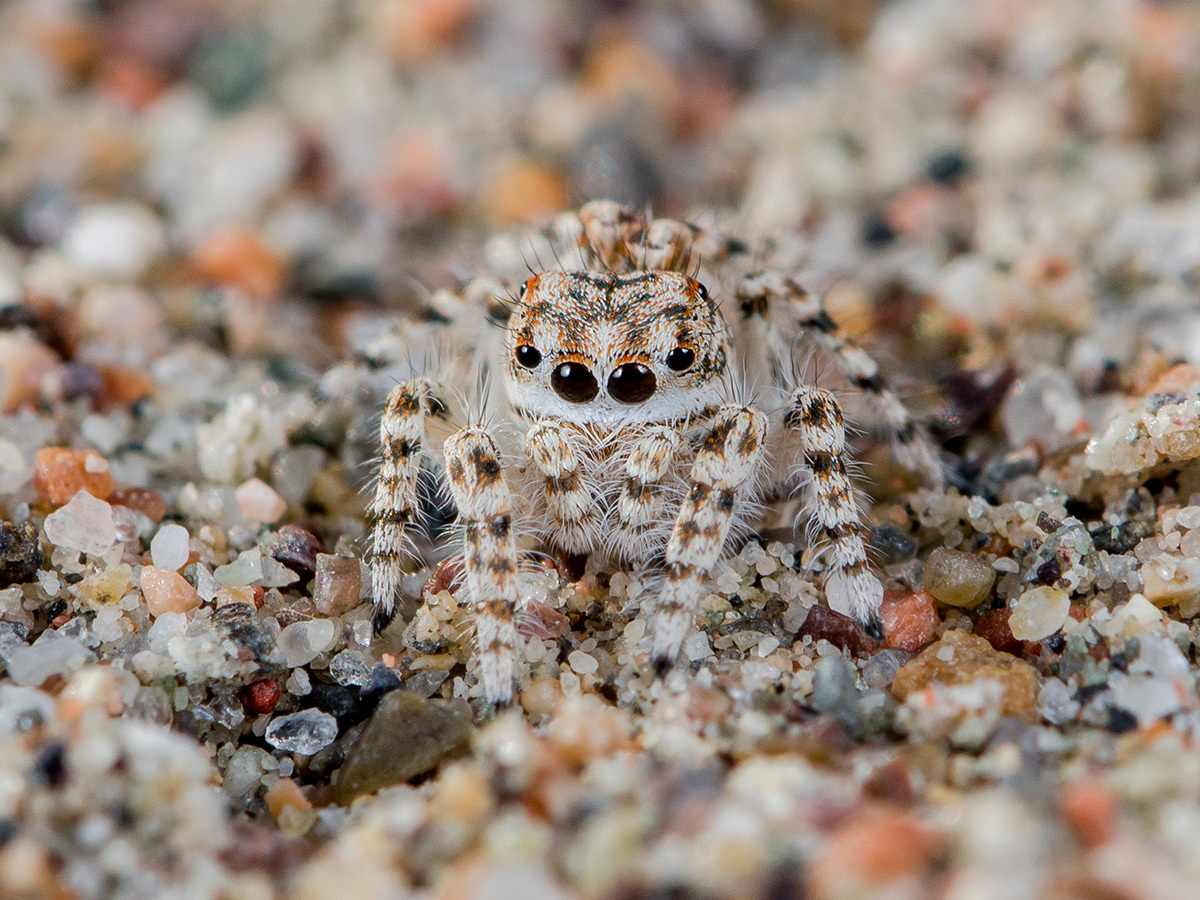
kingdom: Animalia
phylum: Arthropoda
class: Arachnida
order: Araneae
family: Salticidae
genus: Yllenus
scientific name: Yllenus uiguricus
